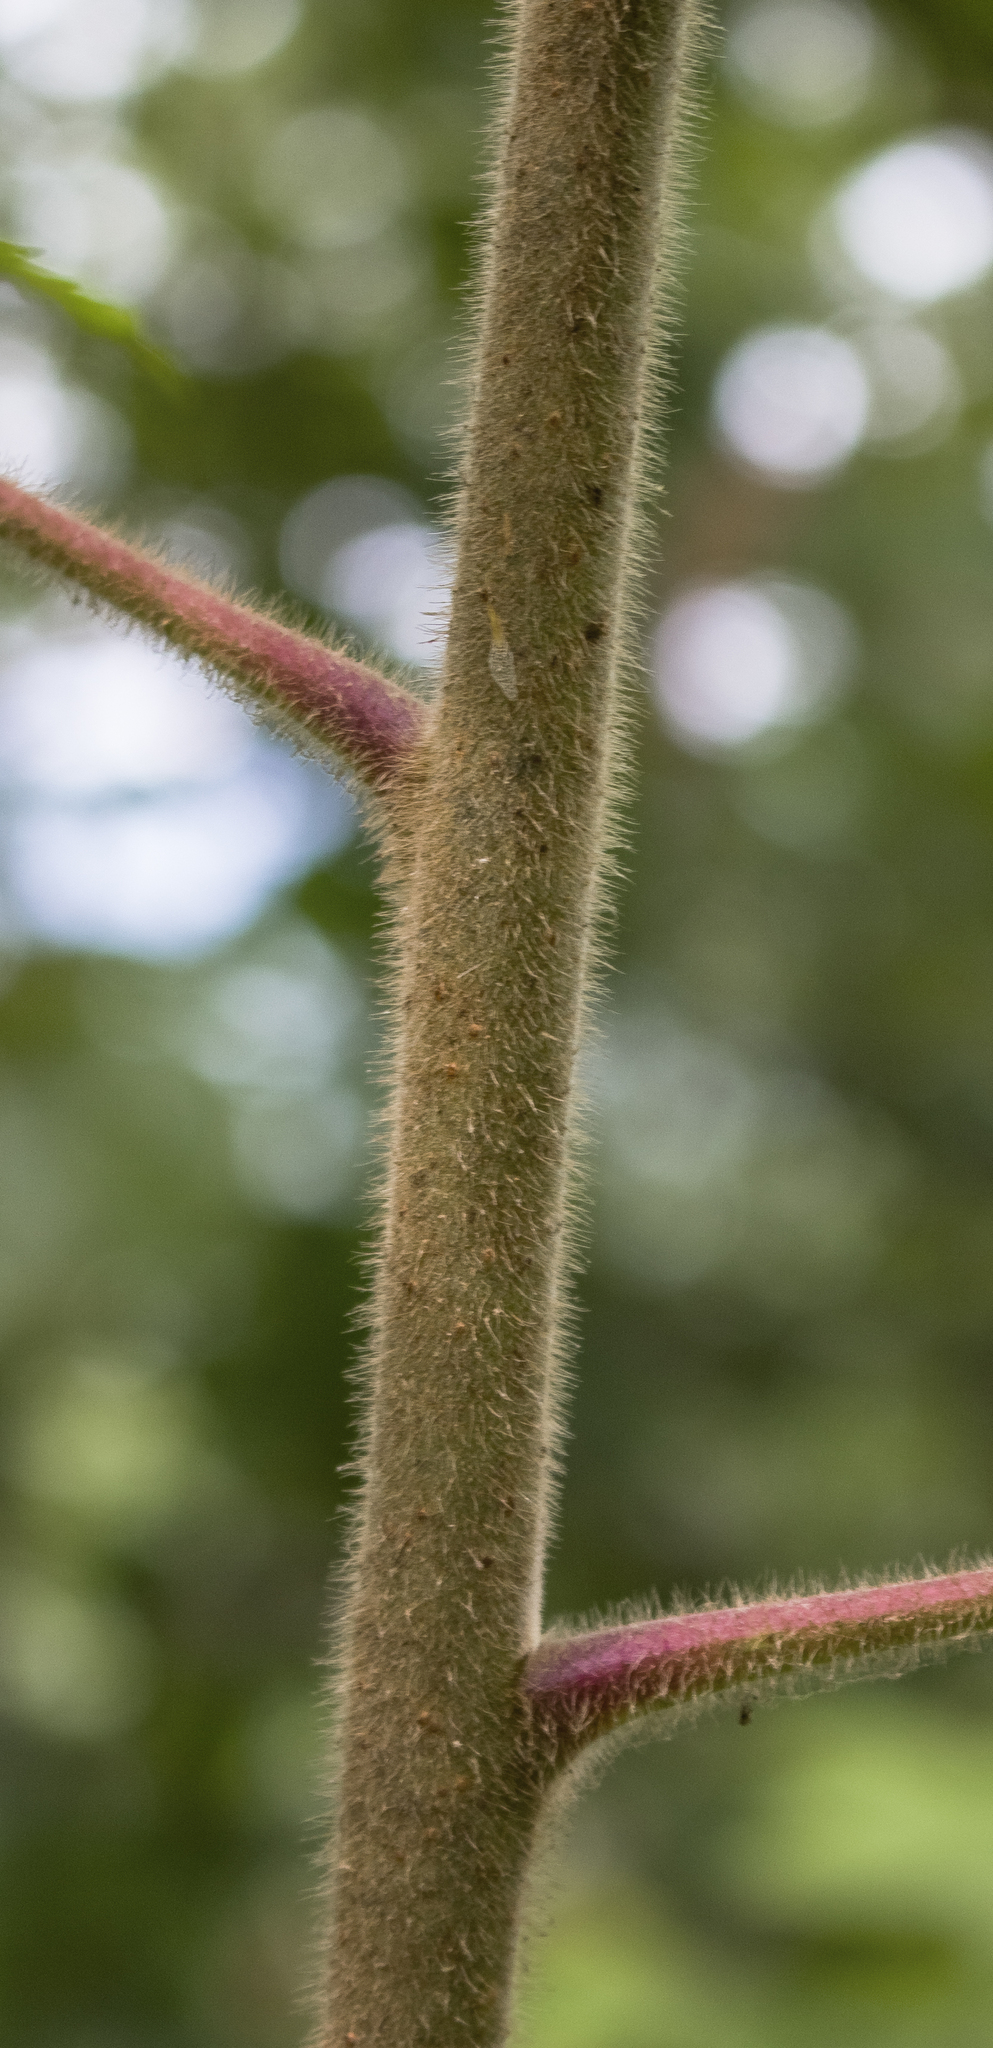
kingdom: Plantae
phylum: Tracheophyta
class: Magnoliopsida
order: Sapindales
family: Anacardiaceae
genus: Rhus
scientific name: Rhus typhina
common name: Staghorn sumac
